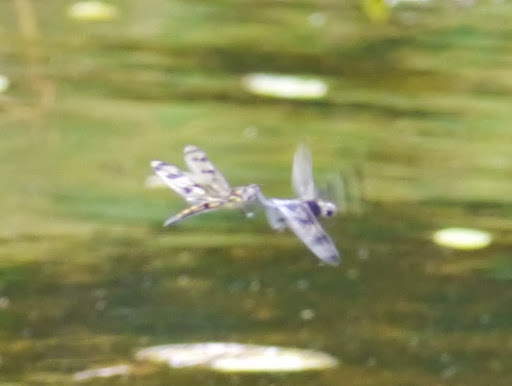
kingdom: Animalia
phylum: Arthropoda
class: Insecta
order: Odonata
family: Libellulidae
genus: Celithemis
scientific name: Celithemis fasciata
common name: Banded pennant
